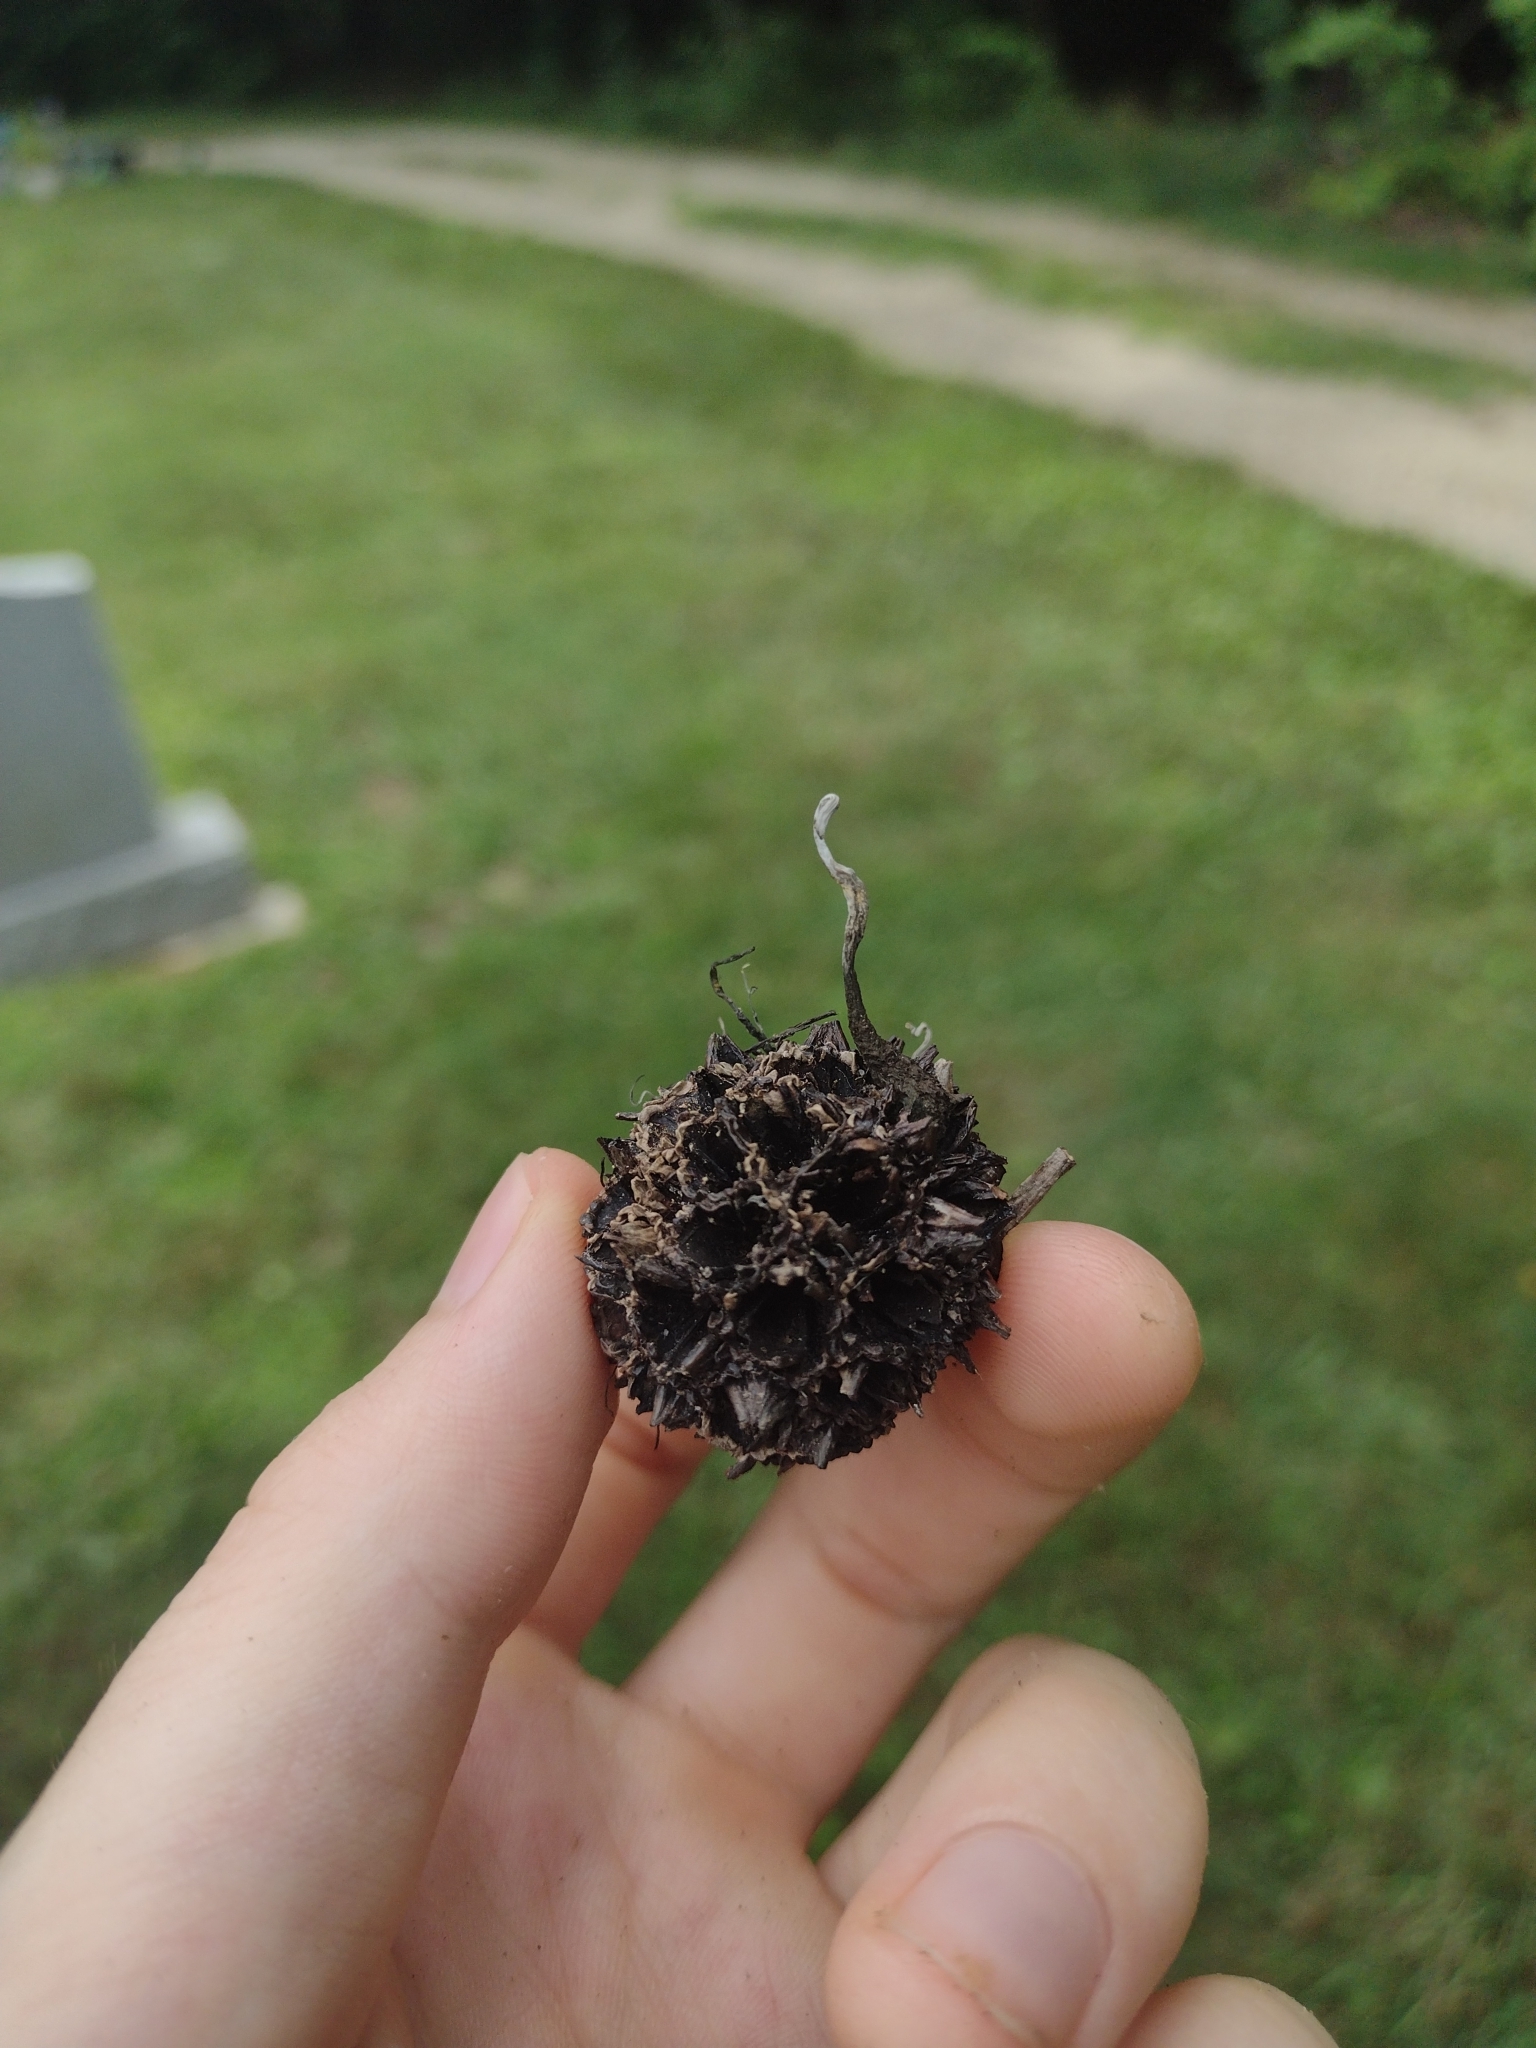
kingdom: Fungi
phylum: Ascomycota
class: Sordariomycetes
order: Xylariales
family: Xylariaceae
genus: Xylaria
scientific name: Xylaria liquidambaris
